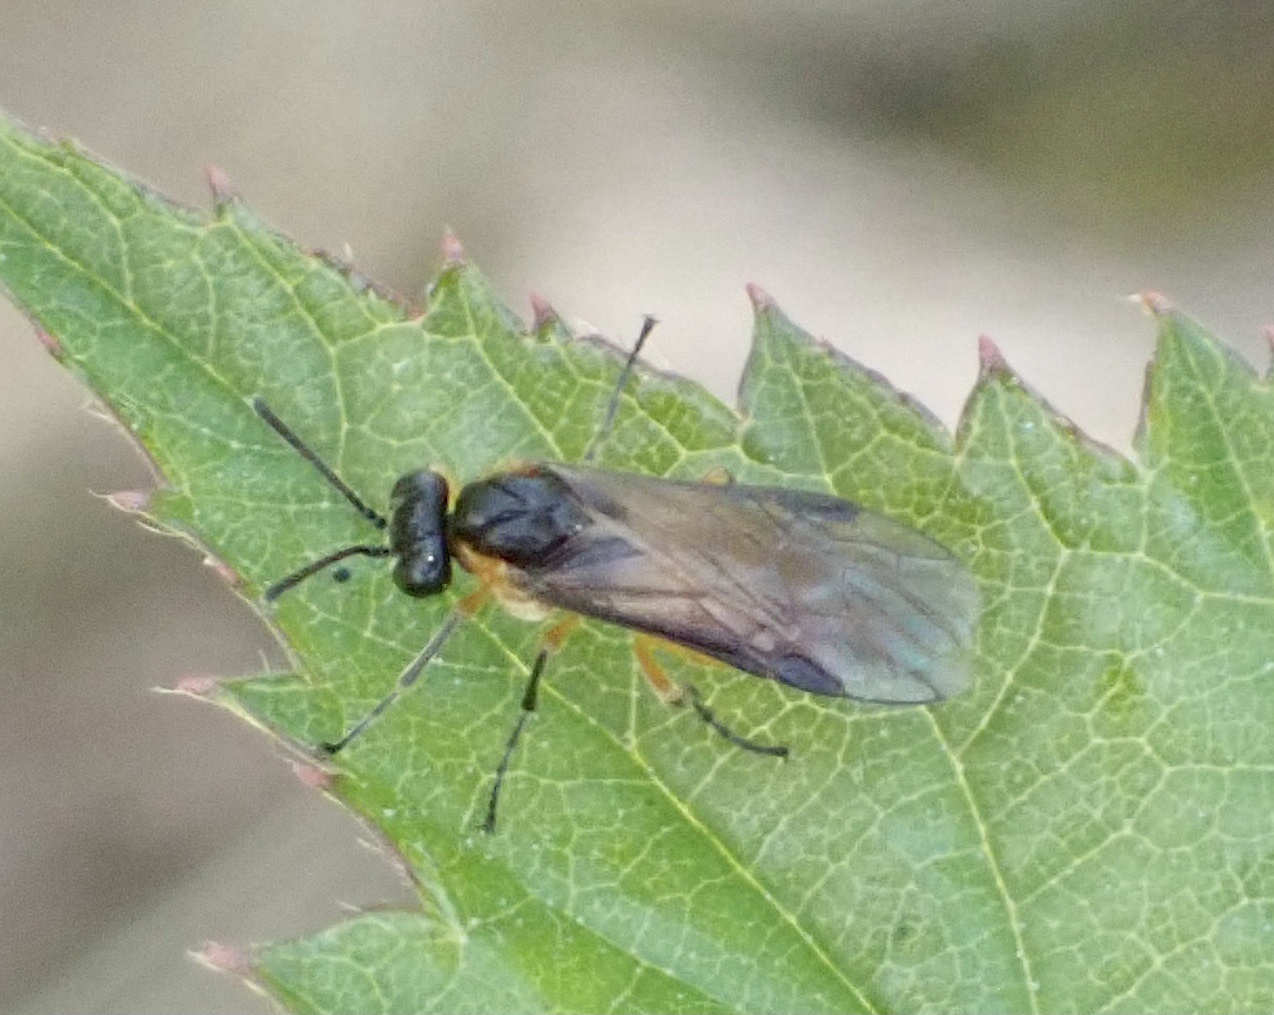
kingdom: Animalia
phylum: Arthropoda
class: Insecta
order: Hymenoptera
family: Tenthredinidae
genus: Athalia
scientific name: Athalia lugens
